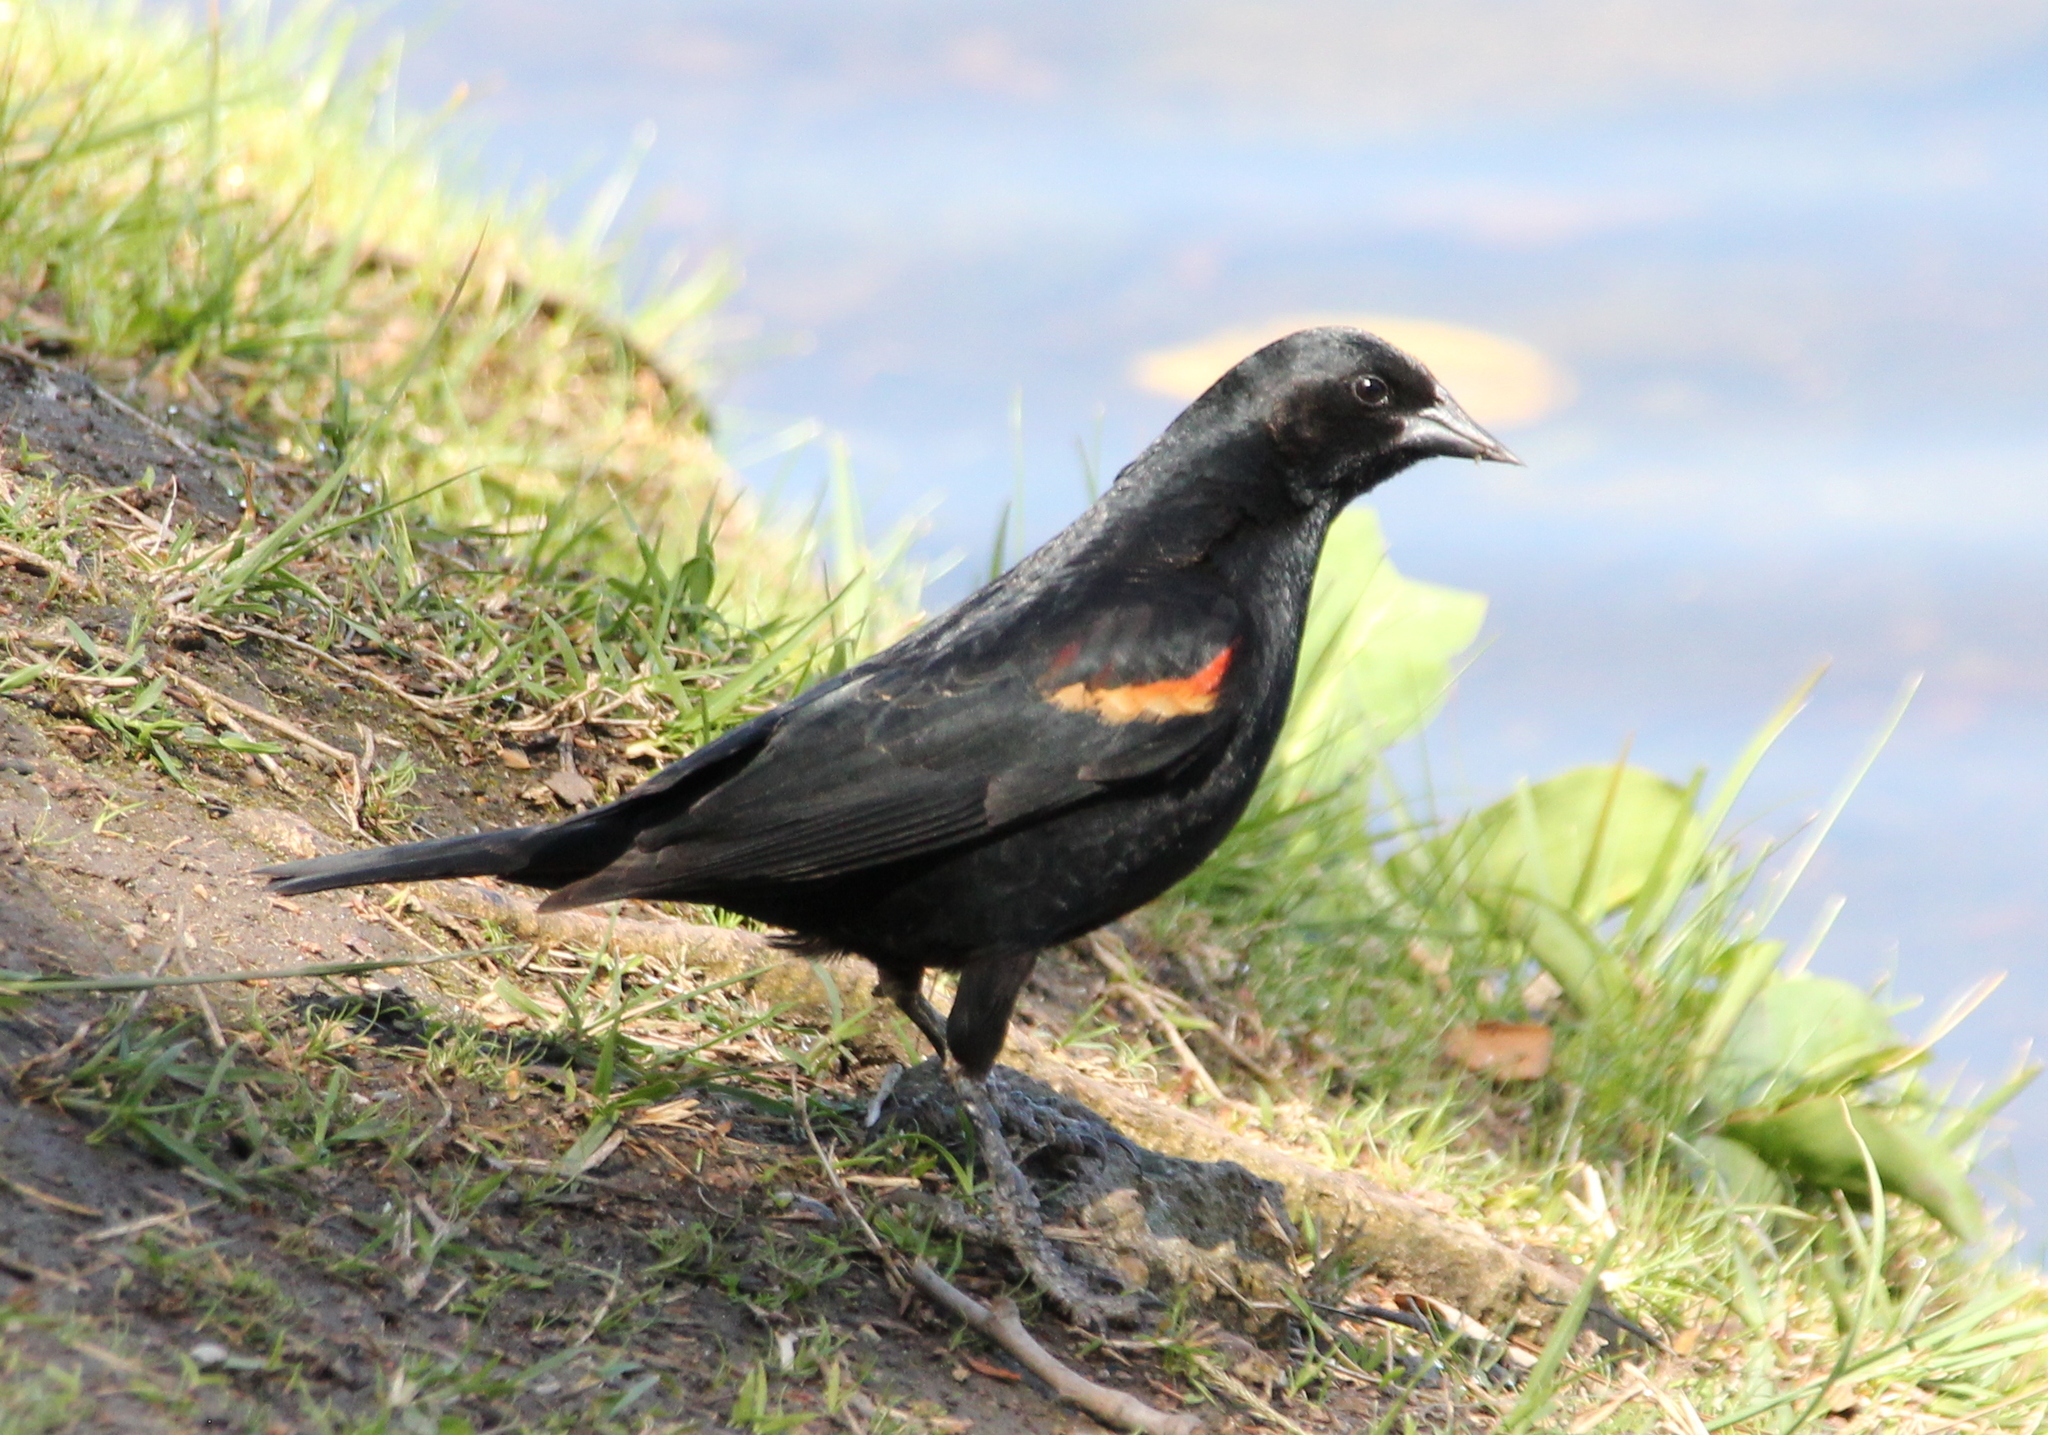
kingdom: Animalia
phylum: Chordata
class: Aves
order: Passeriformes
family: Icteridae
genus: Agelaius
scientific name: Agelaius phoeniceus
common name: Red-winged blackbird
